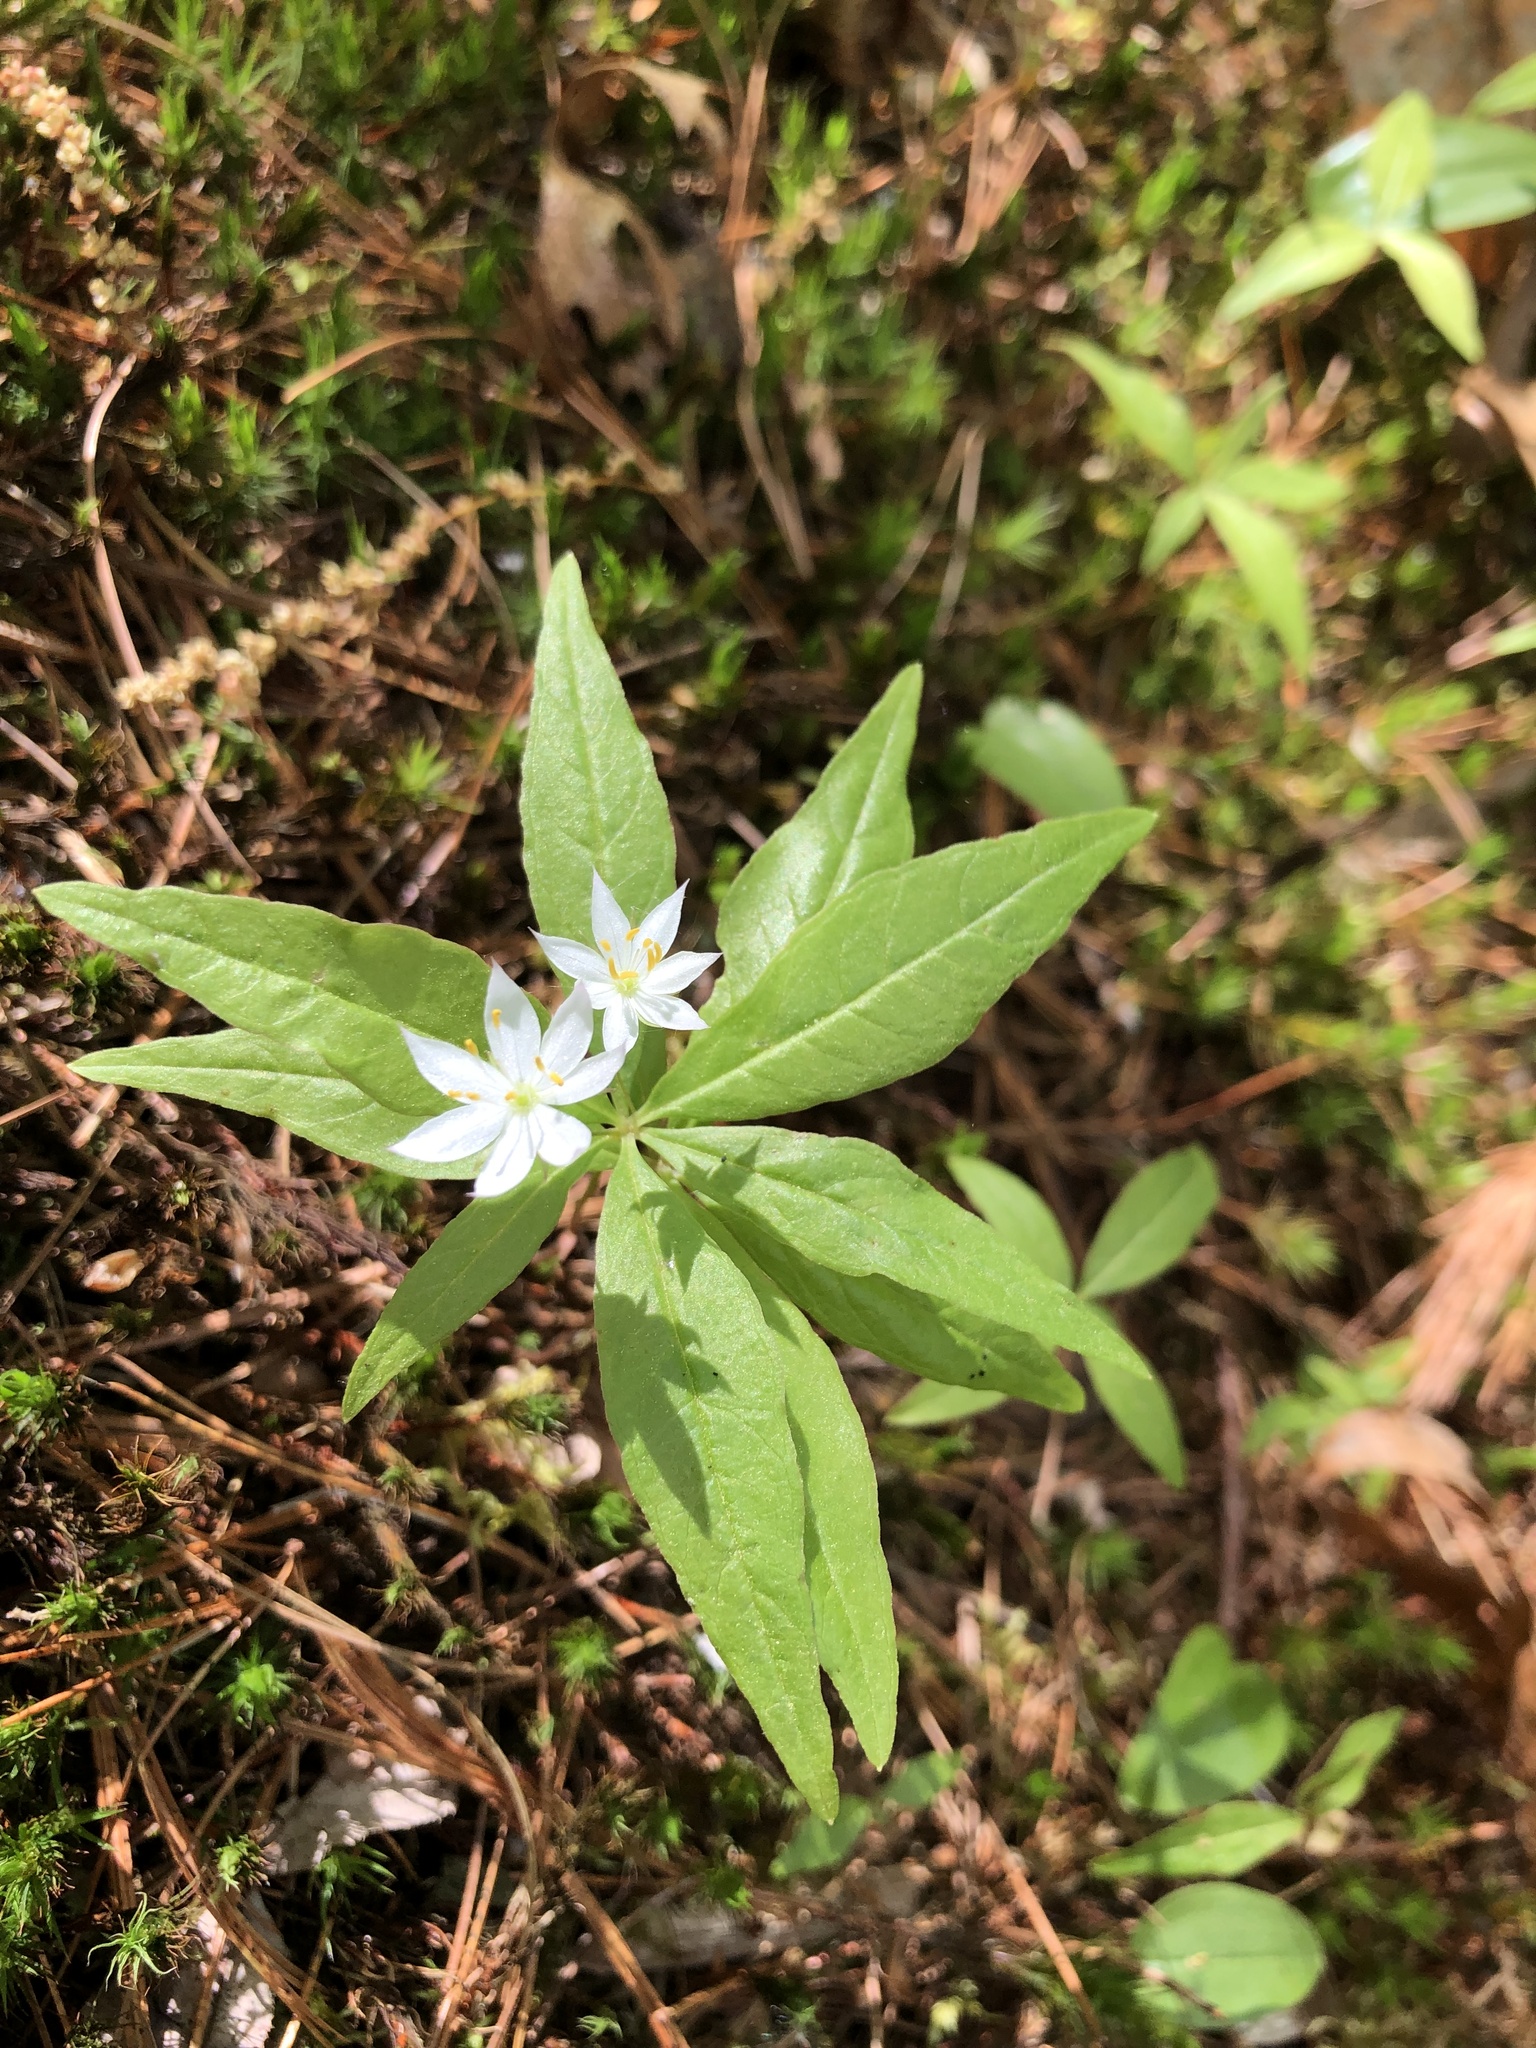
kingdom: Plantae
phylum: Tracheophyta
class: Magnoliopsida
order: Ericales
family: Primulaceae
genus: Lysimachia
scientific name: Lysimachia borealis
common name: American starflower
